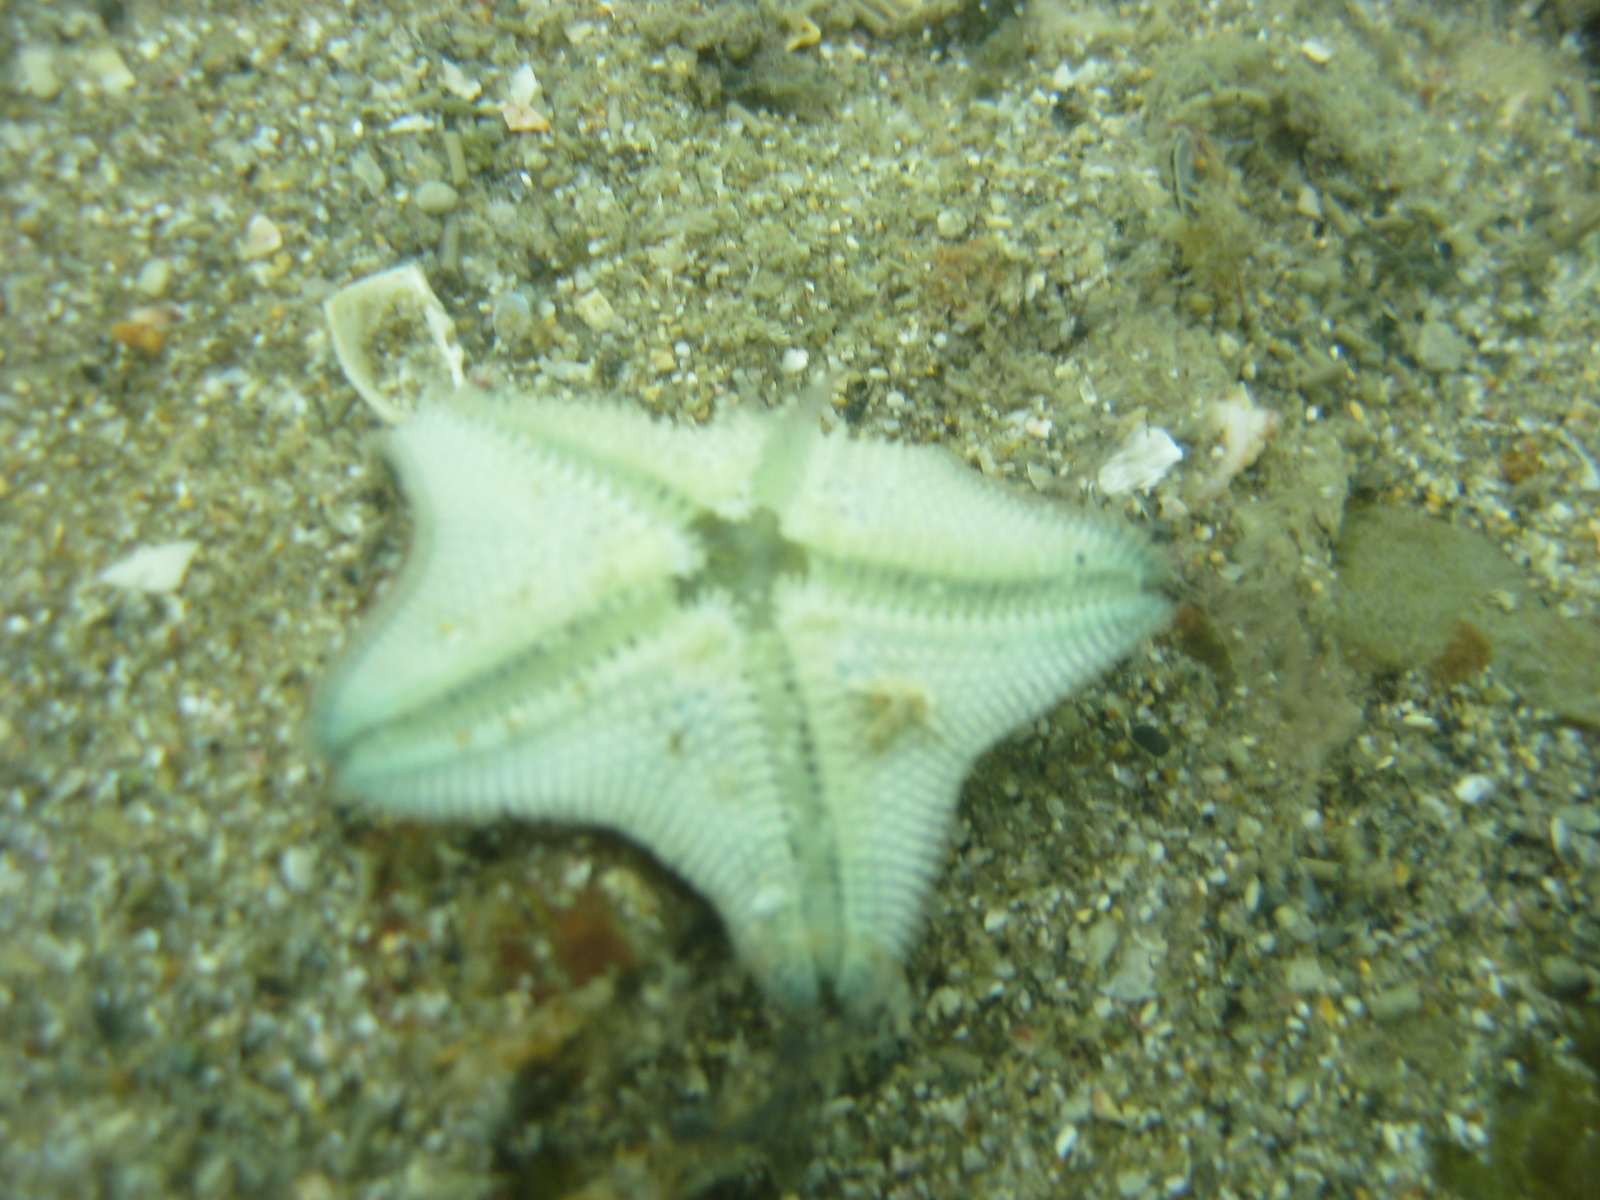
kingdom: Animalia
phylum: Echinodermata
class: Asteroidea
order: Valvatida
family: Asterinidae
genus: Patiriella
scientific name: Patiriella regularis
